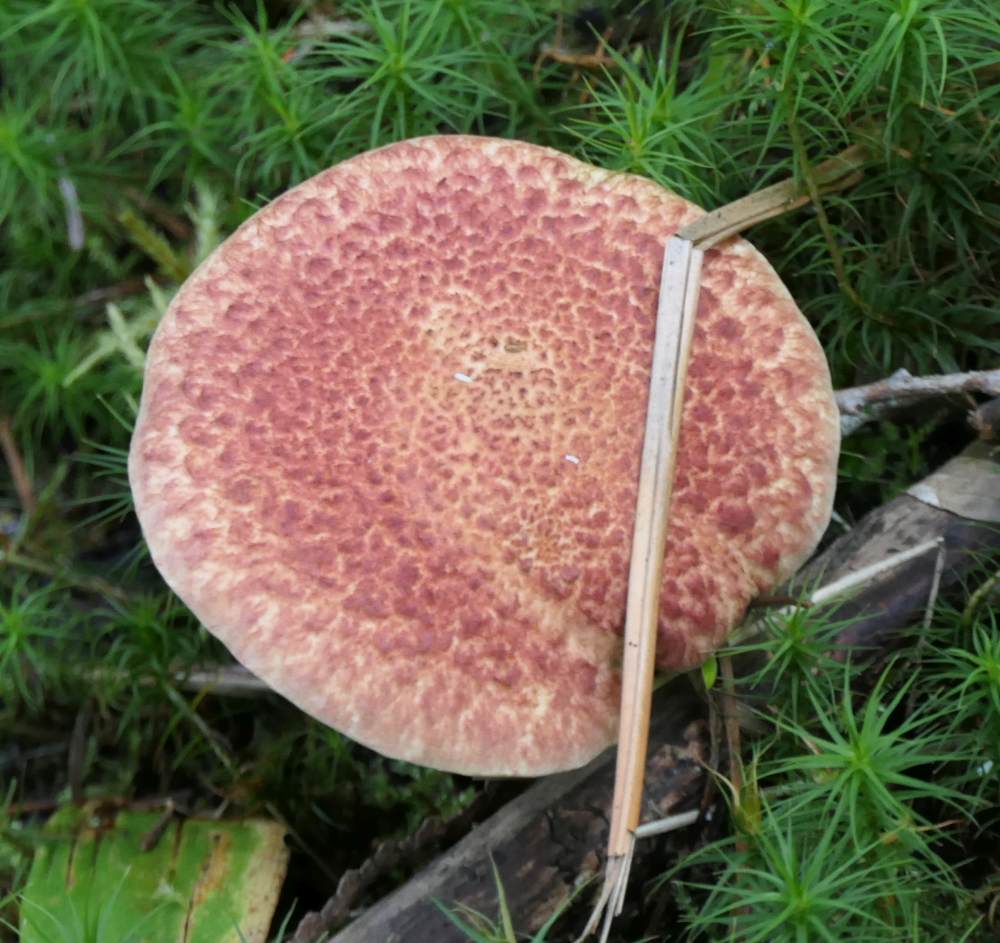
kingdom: Fungi
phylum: Basidiomycota
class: Agaricomycetes
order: Boletales
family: Suillaceae
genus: Suillus
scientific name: Suillus spraguei
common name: Painted suillus
